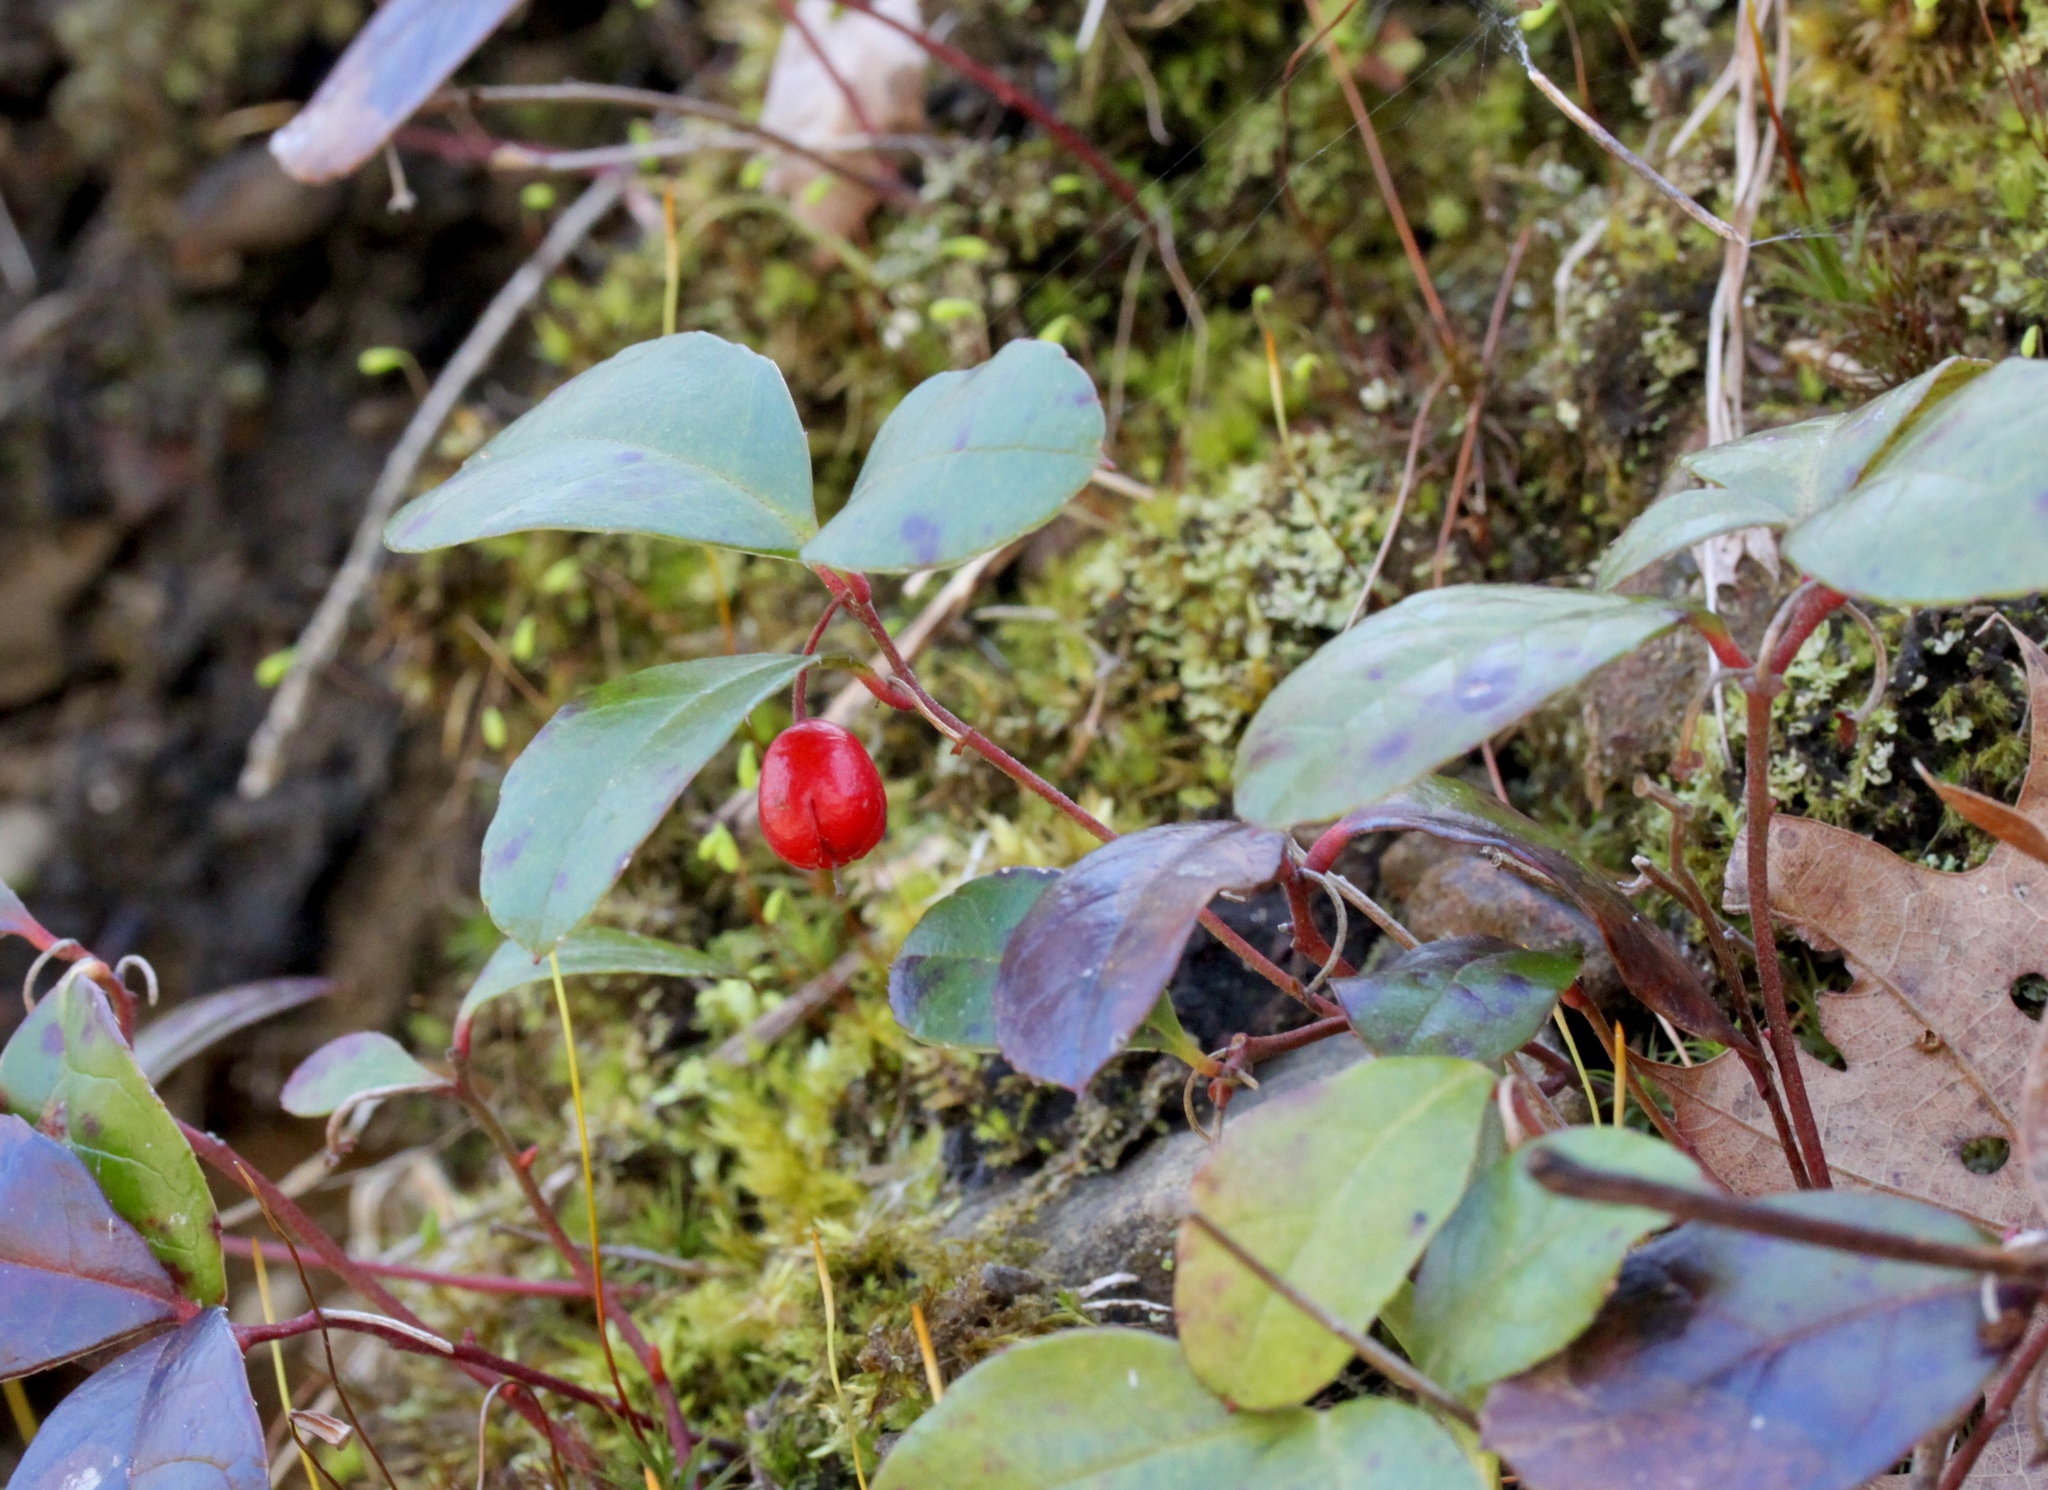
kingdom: Plantae
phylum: Tracheophyta
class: Magnoliopsida
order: Ericales
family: Ericaceae
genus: Gaultheria
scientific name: Gaultheria procumbens
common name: Checkerberry
